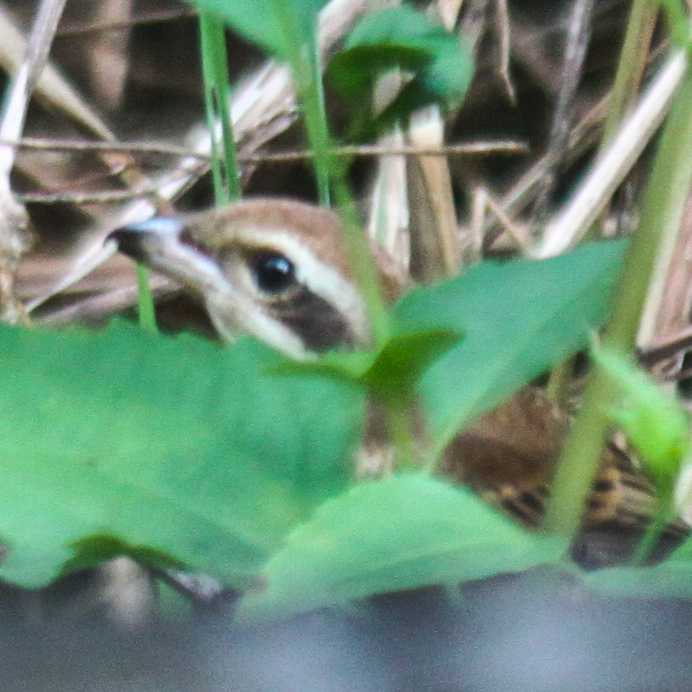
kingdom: Animalia
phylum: Chordata
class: Aves
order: Passeriformes
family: Laniidae
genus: Lanius
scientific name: Lanius cristatus
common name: Brown shrike
